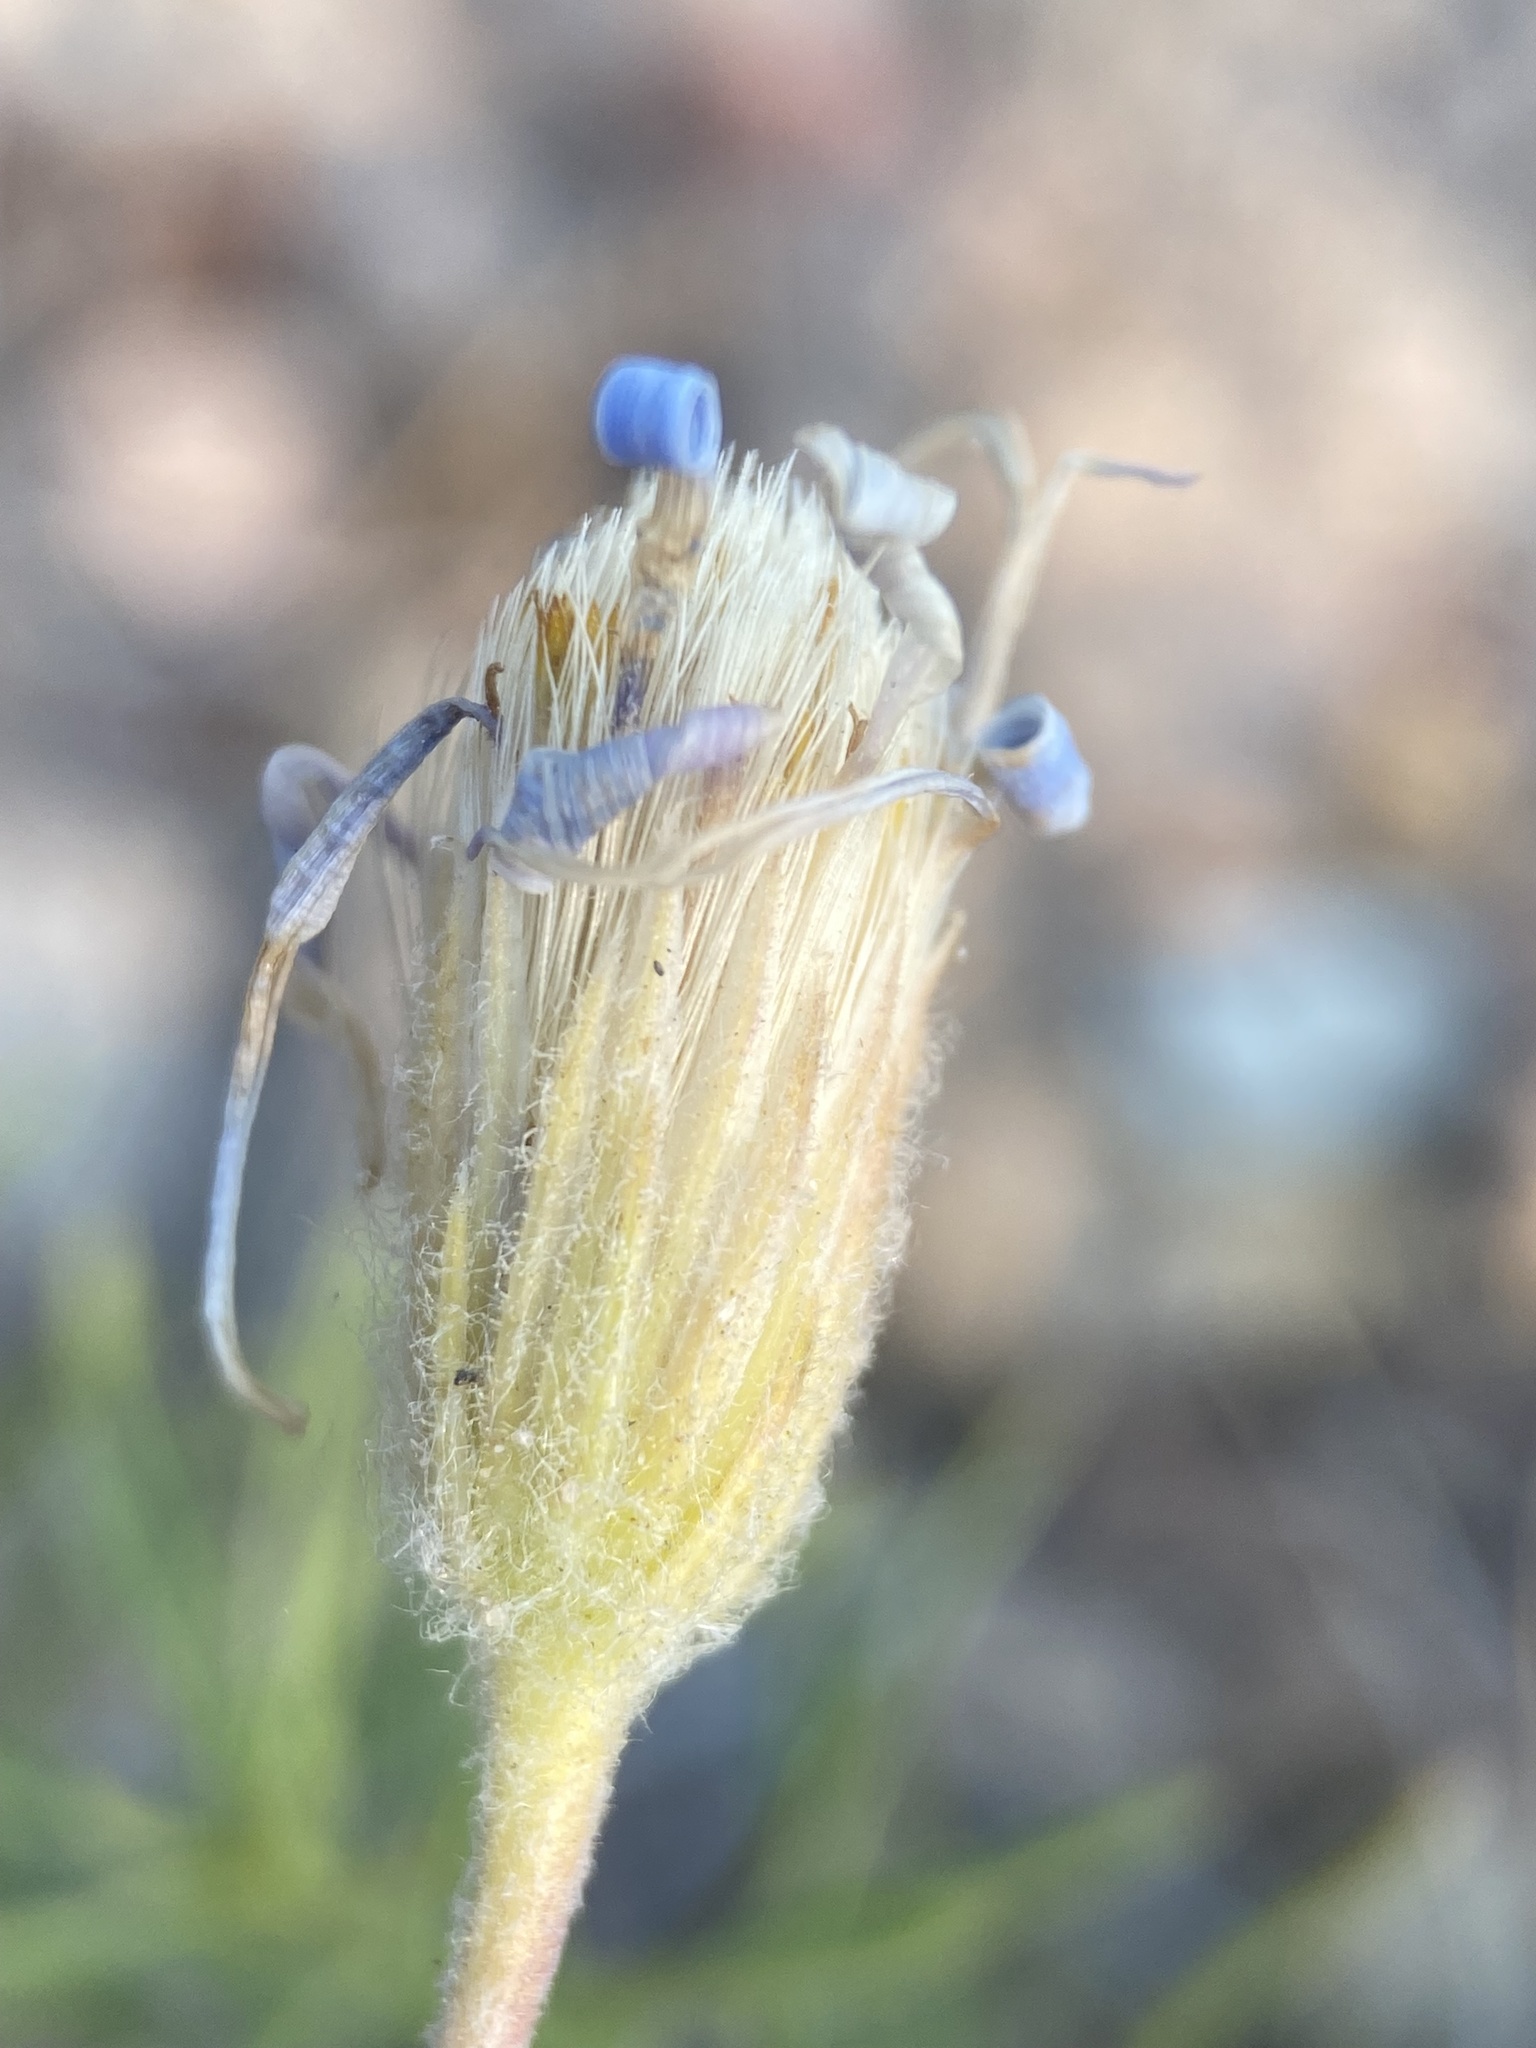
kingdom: Plantae
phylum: Tracheophyta
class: Magnoliopsida
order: Asterales
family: Asteraceae
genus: Ionactis
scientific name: Ionactis stenomeres
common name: Rocky mountain ankle-aster
